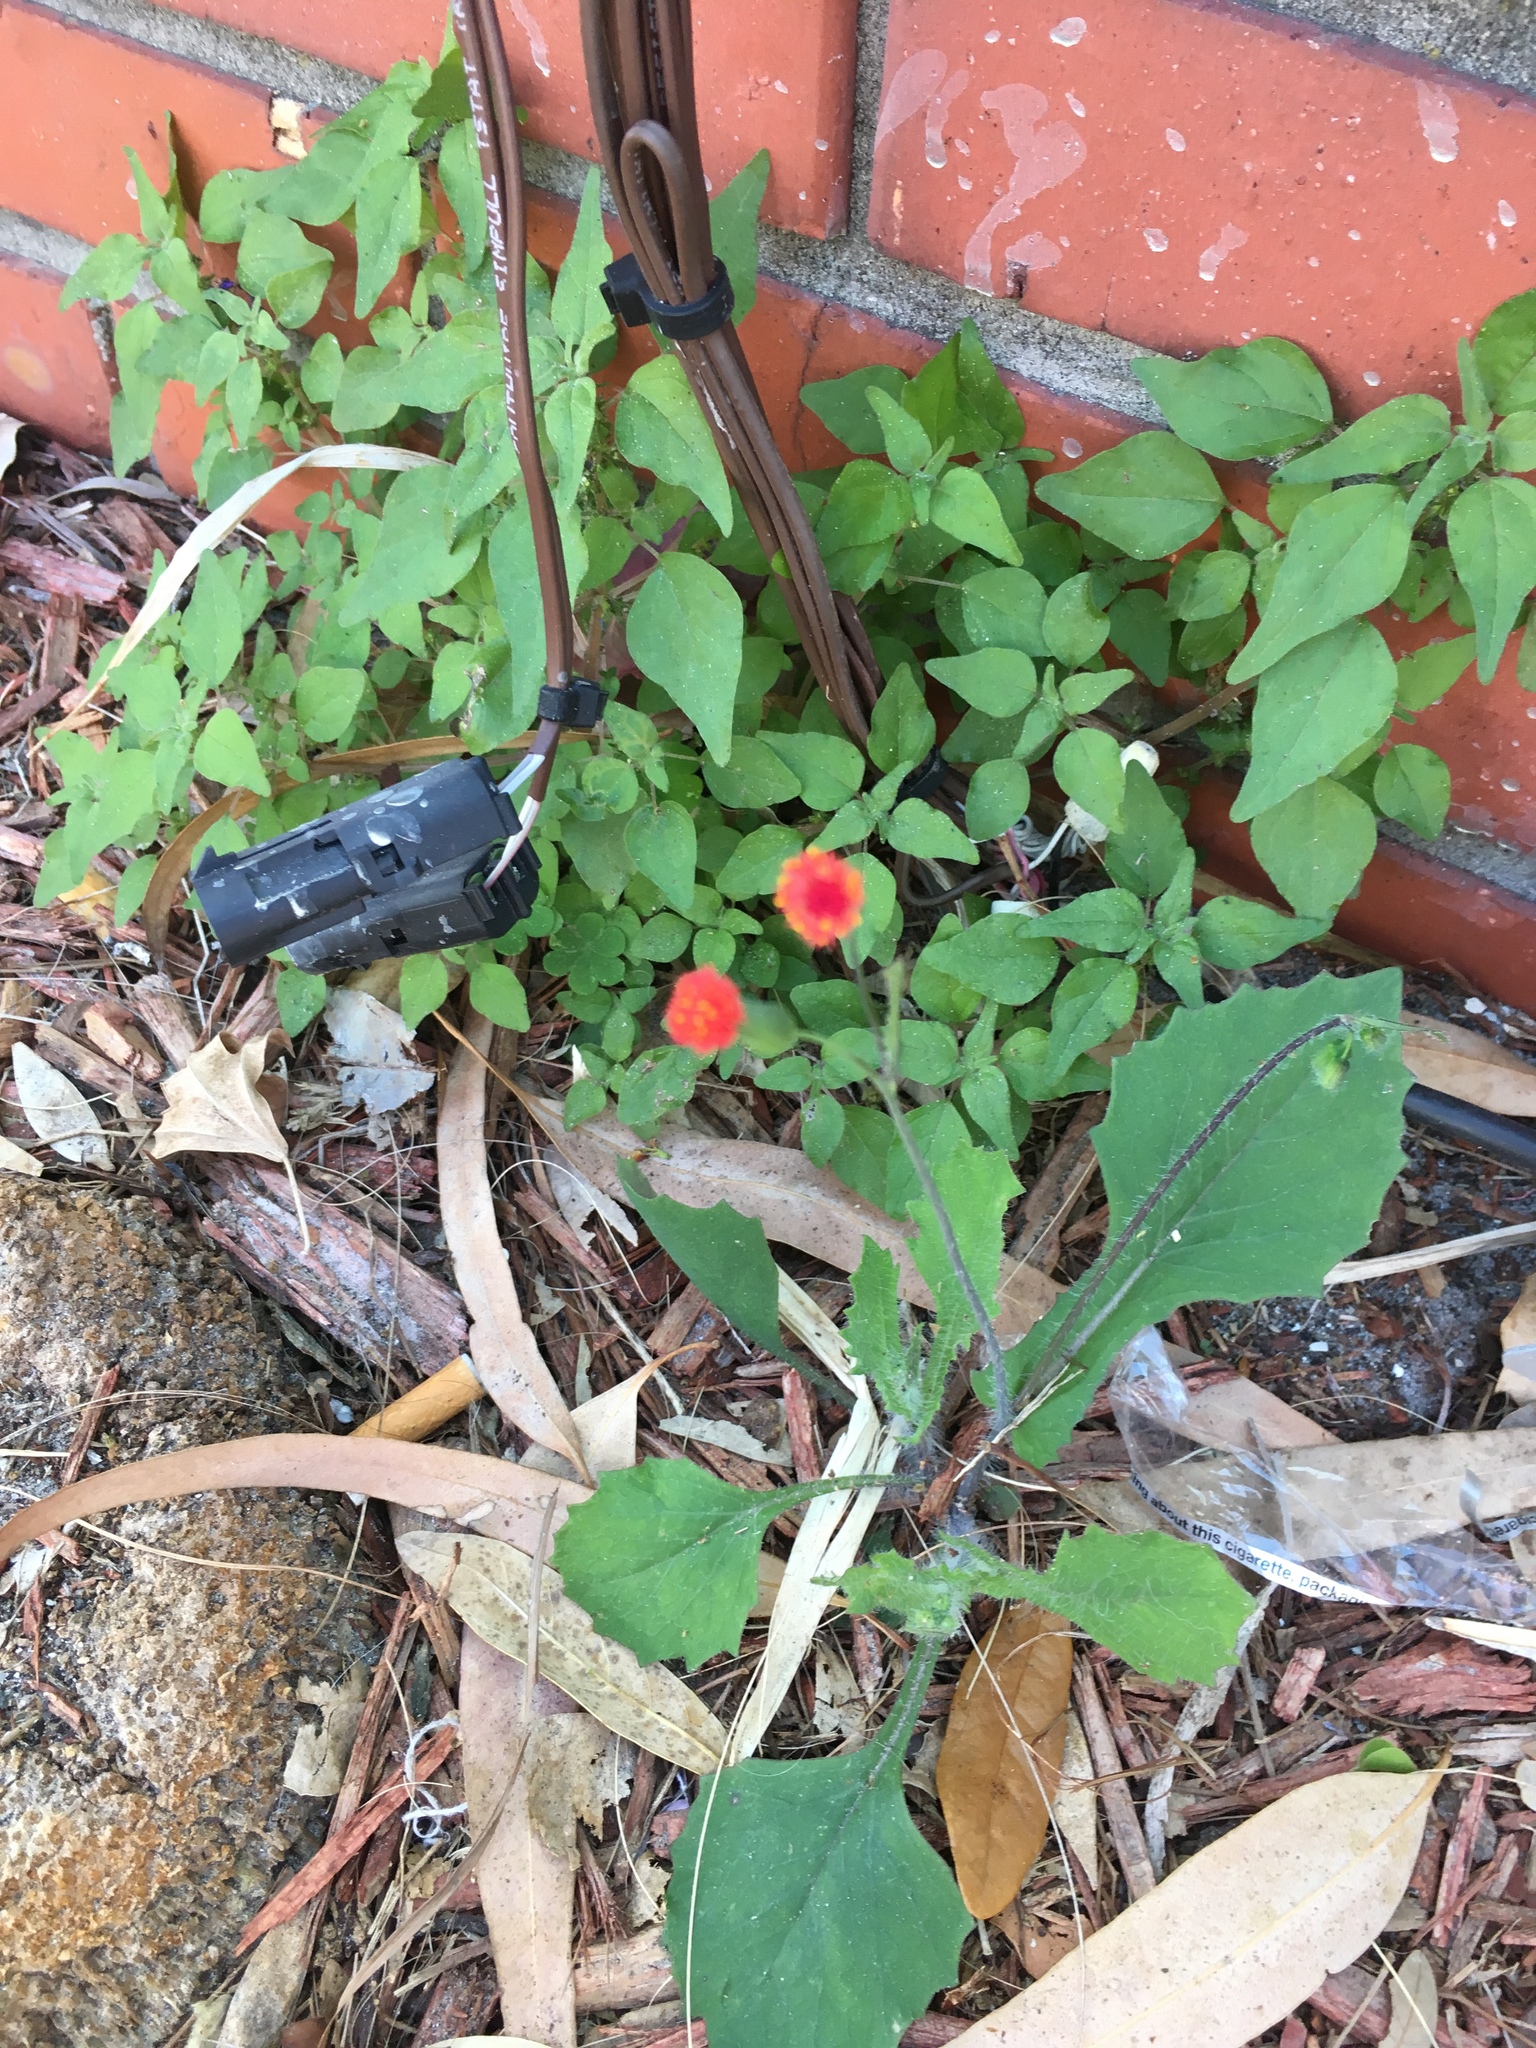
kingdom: Plantae
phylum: Tracheophyta
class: Magnoliopsida
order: Asterales
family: Asteraceae
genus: Emilia
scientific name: Emilia fosbergii
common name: Florida tasselflower
